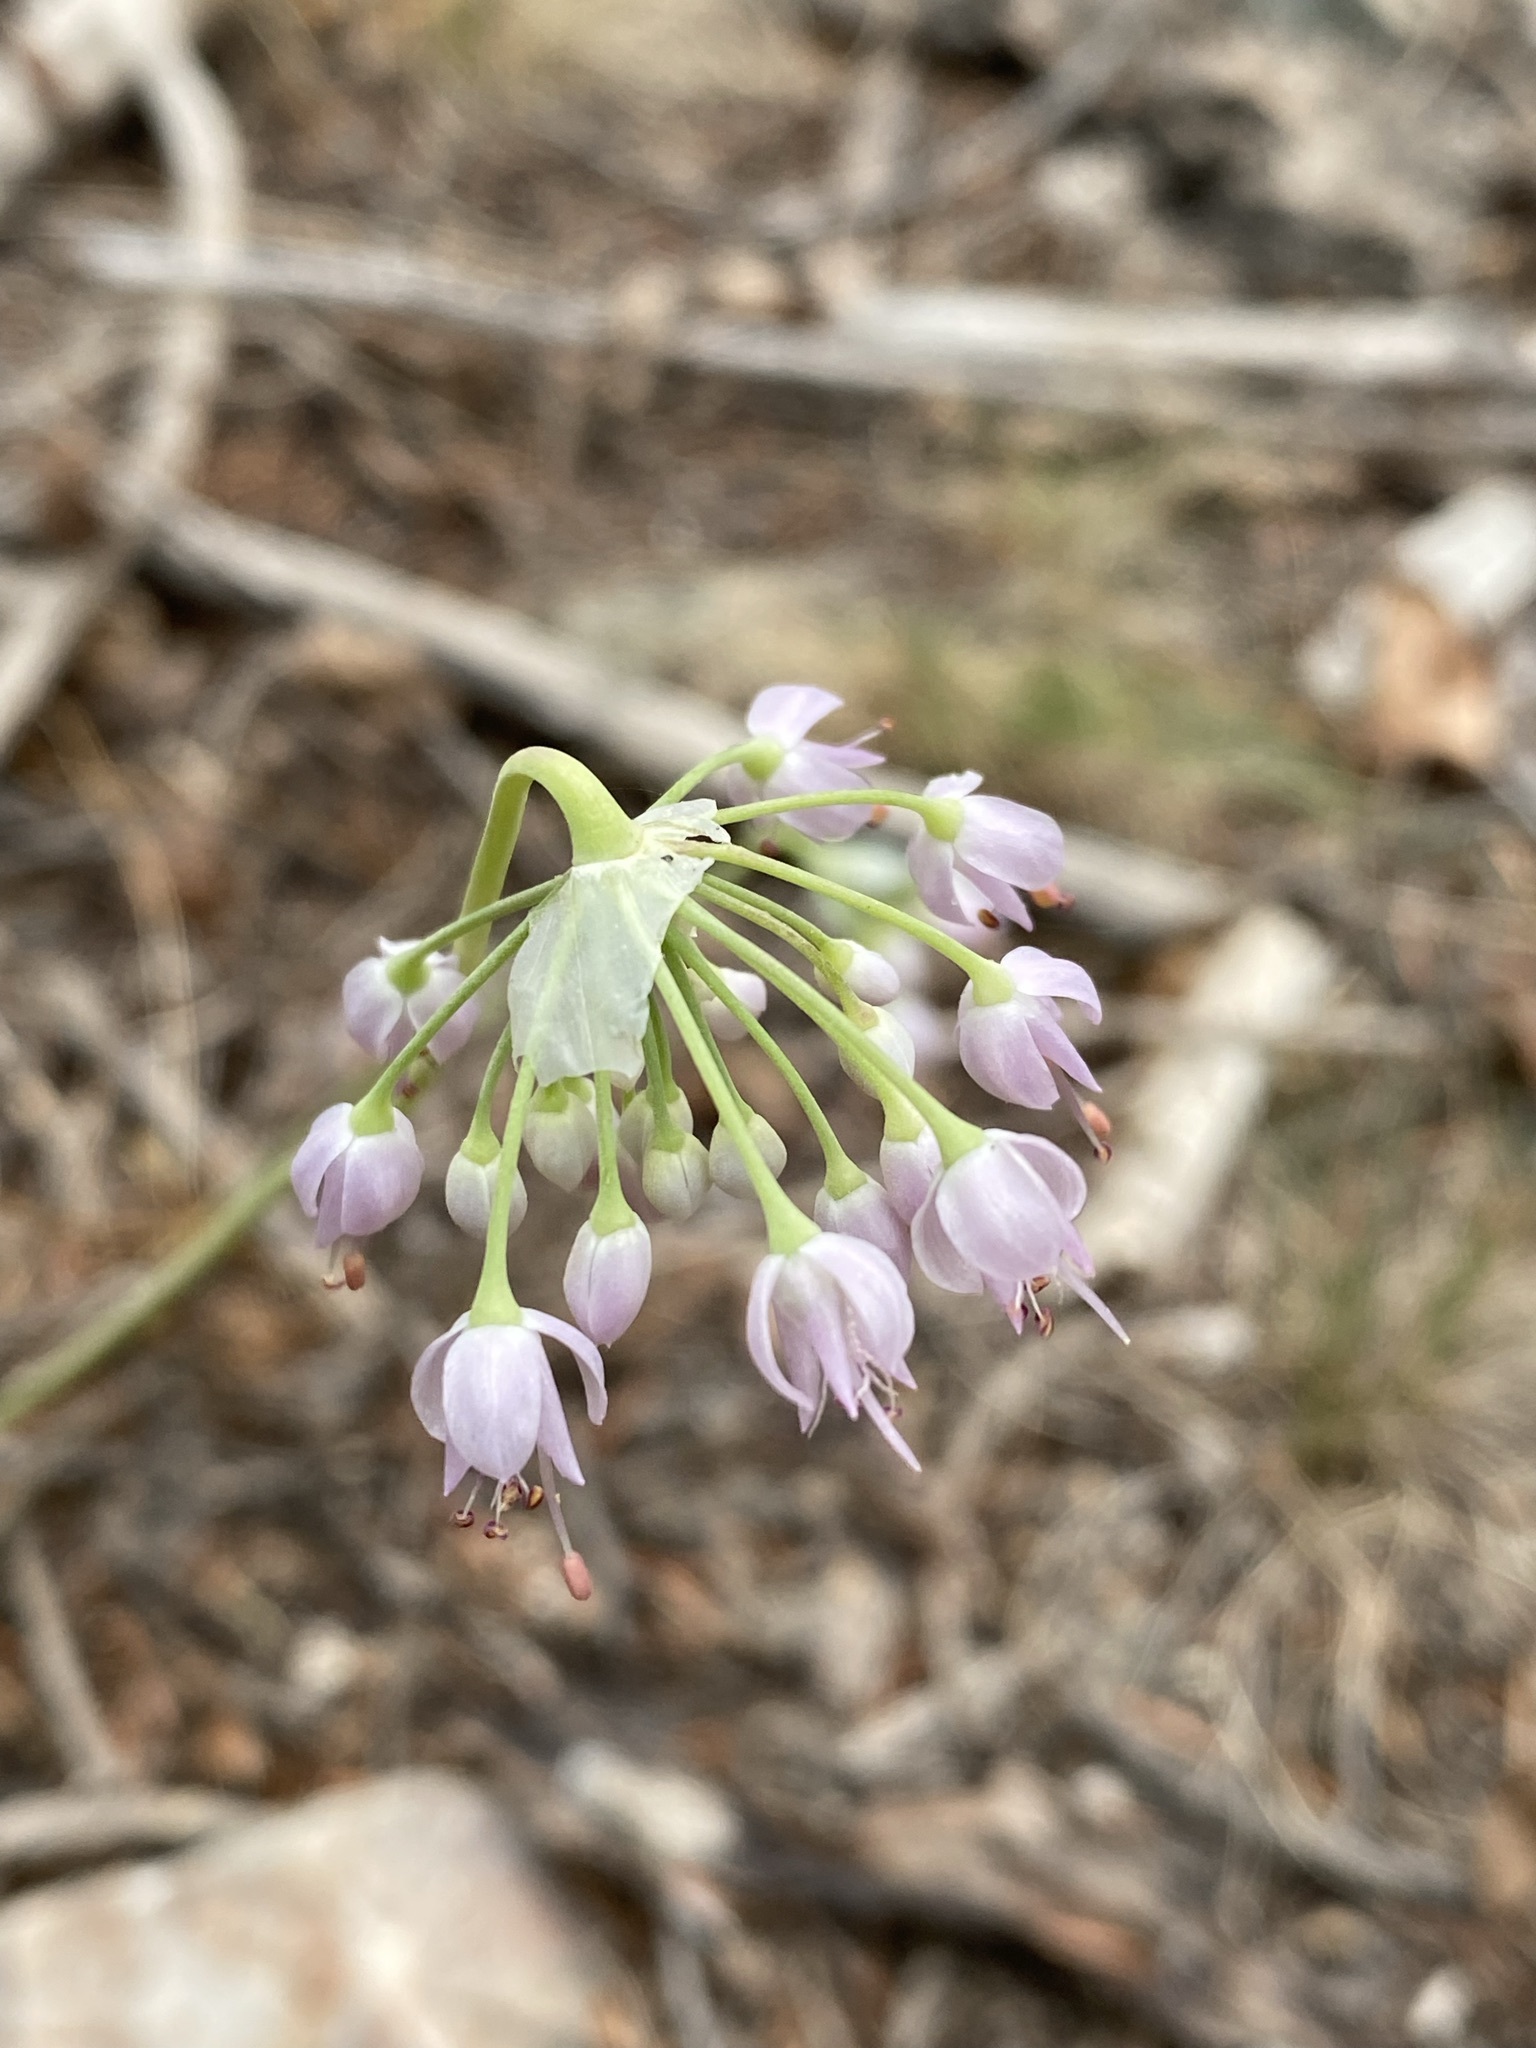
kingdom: Plantae
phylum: Tracheophyta
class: Liliopsida
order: Asparagales
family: Amaryllidaceae
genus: Allium
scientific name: Allium cernuum
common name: Nodding onion
